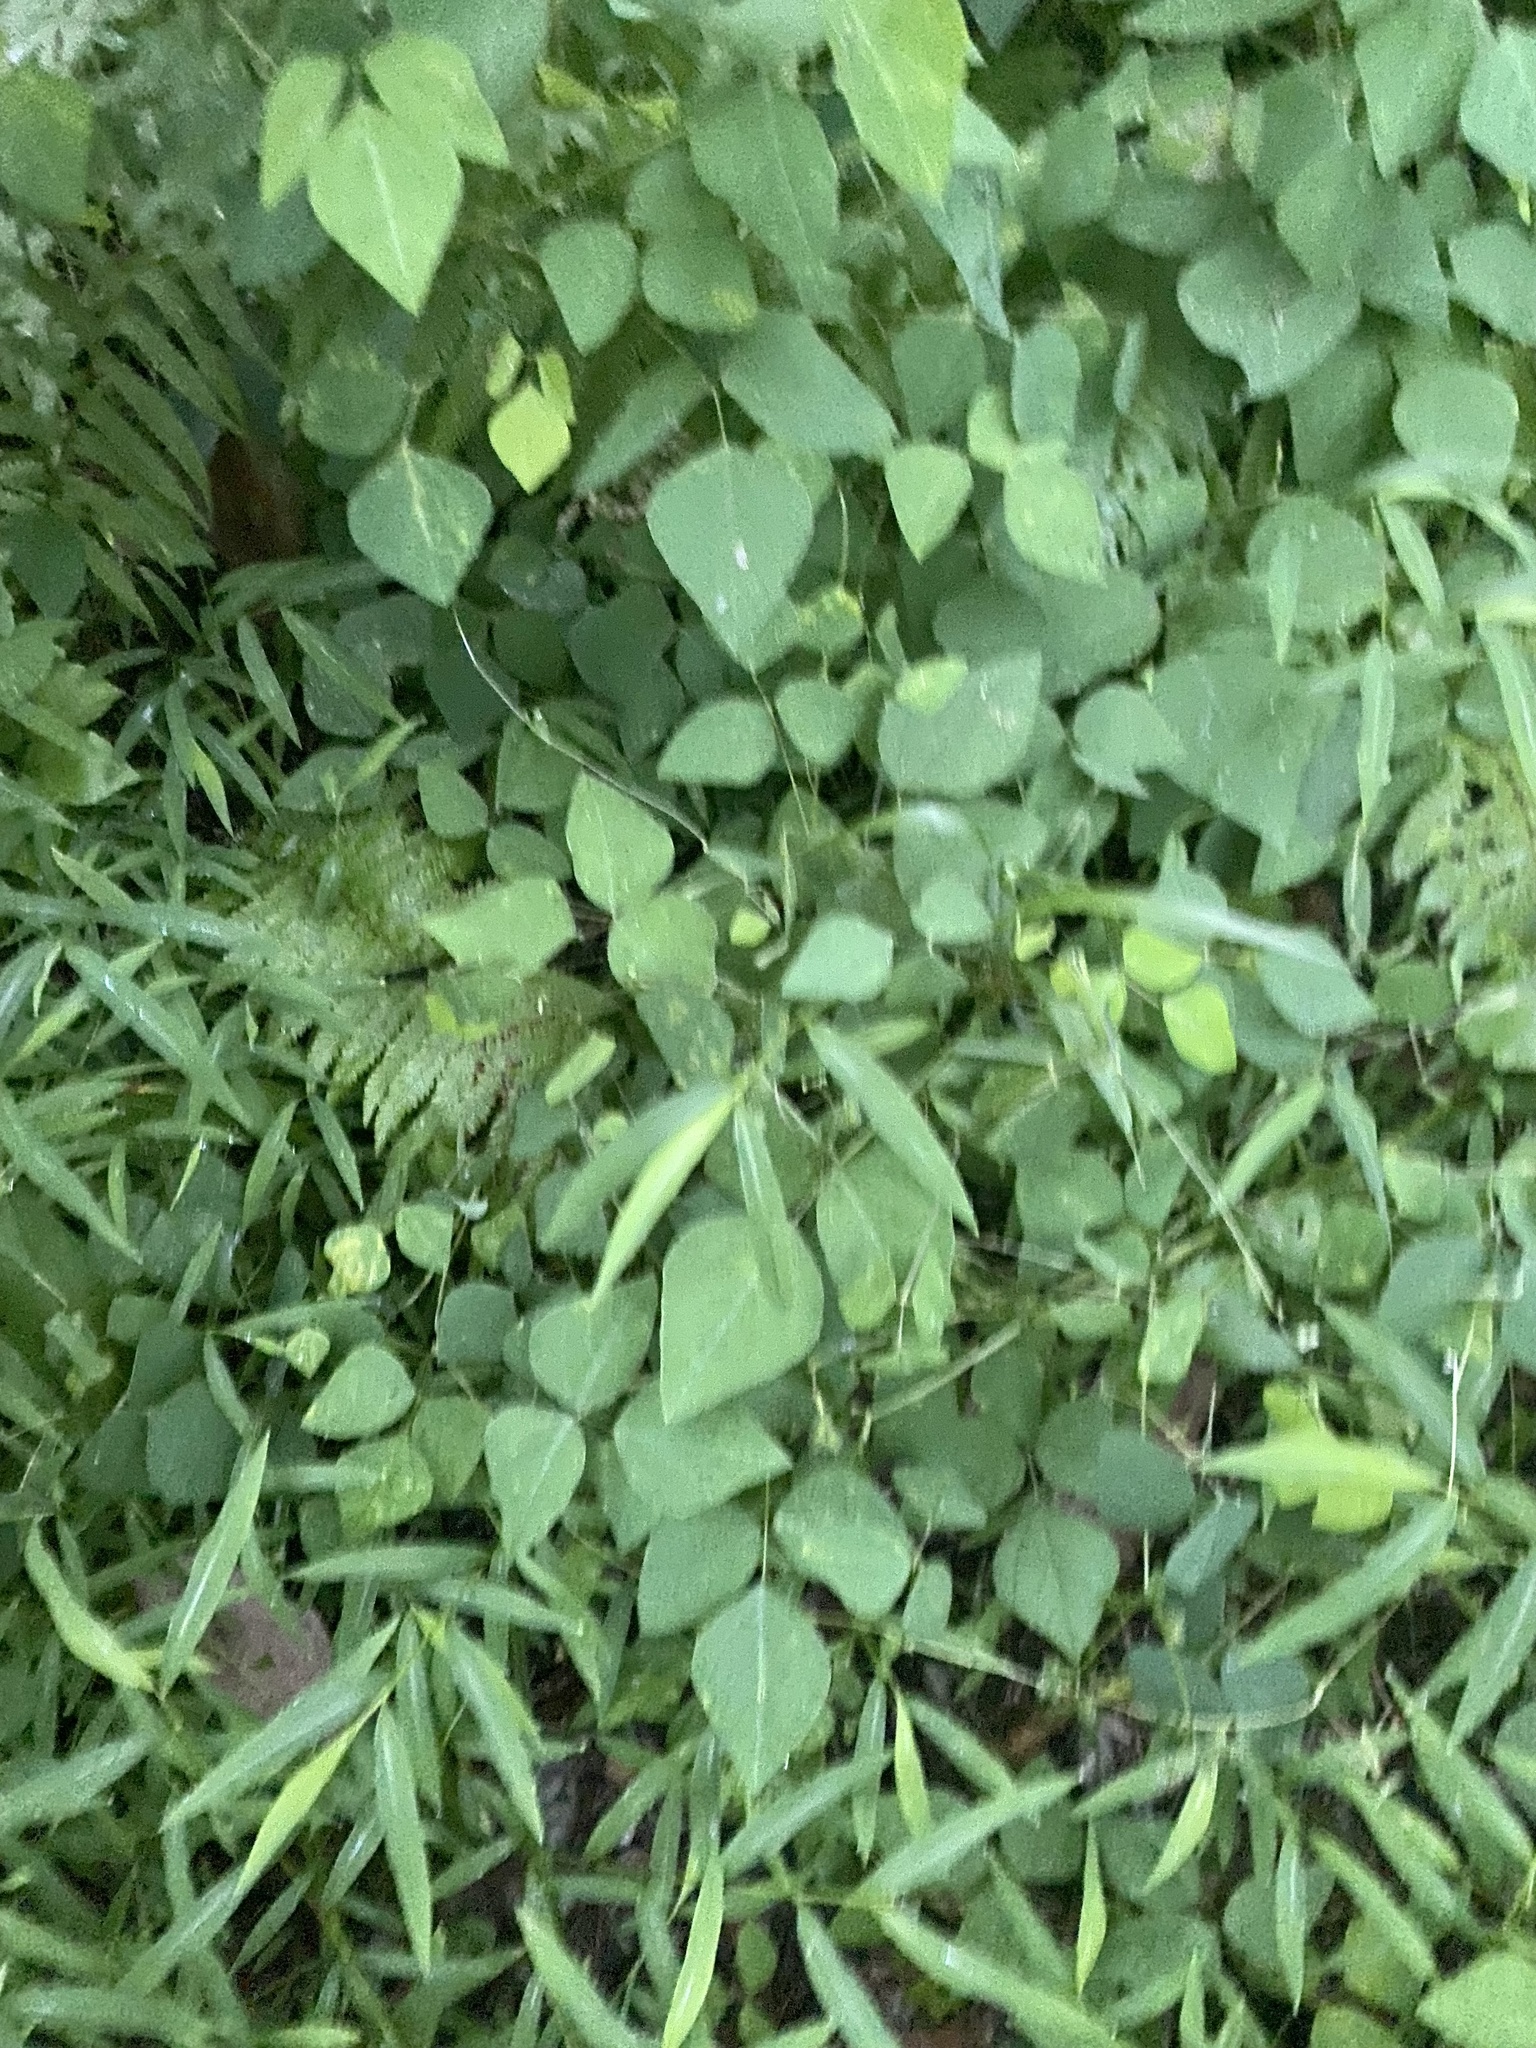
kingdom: Plantae
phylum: Tracheophyta
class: Magnoliopsida
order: Fabales
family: Fabaceae
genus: Amphicarpaea
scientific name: Amphicarpaea bracteata
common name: American hog peanut
